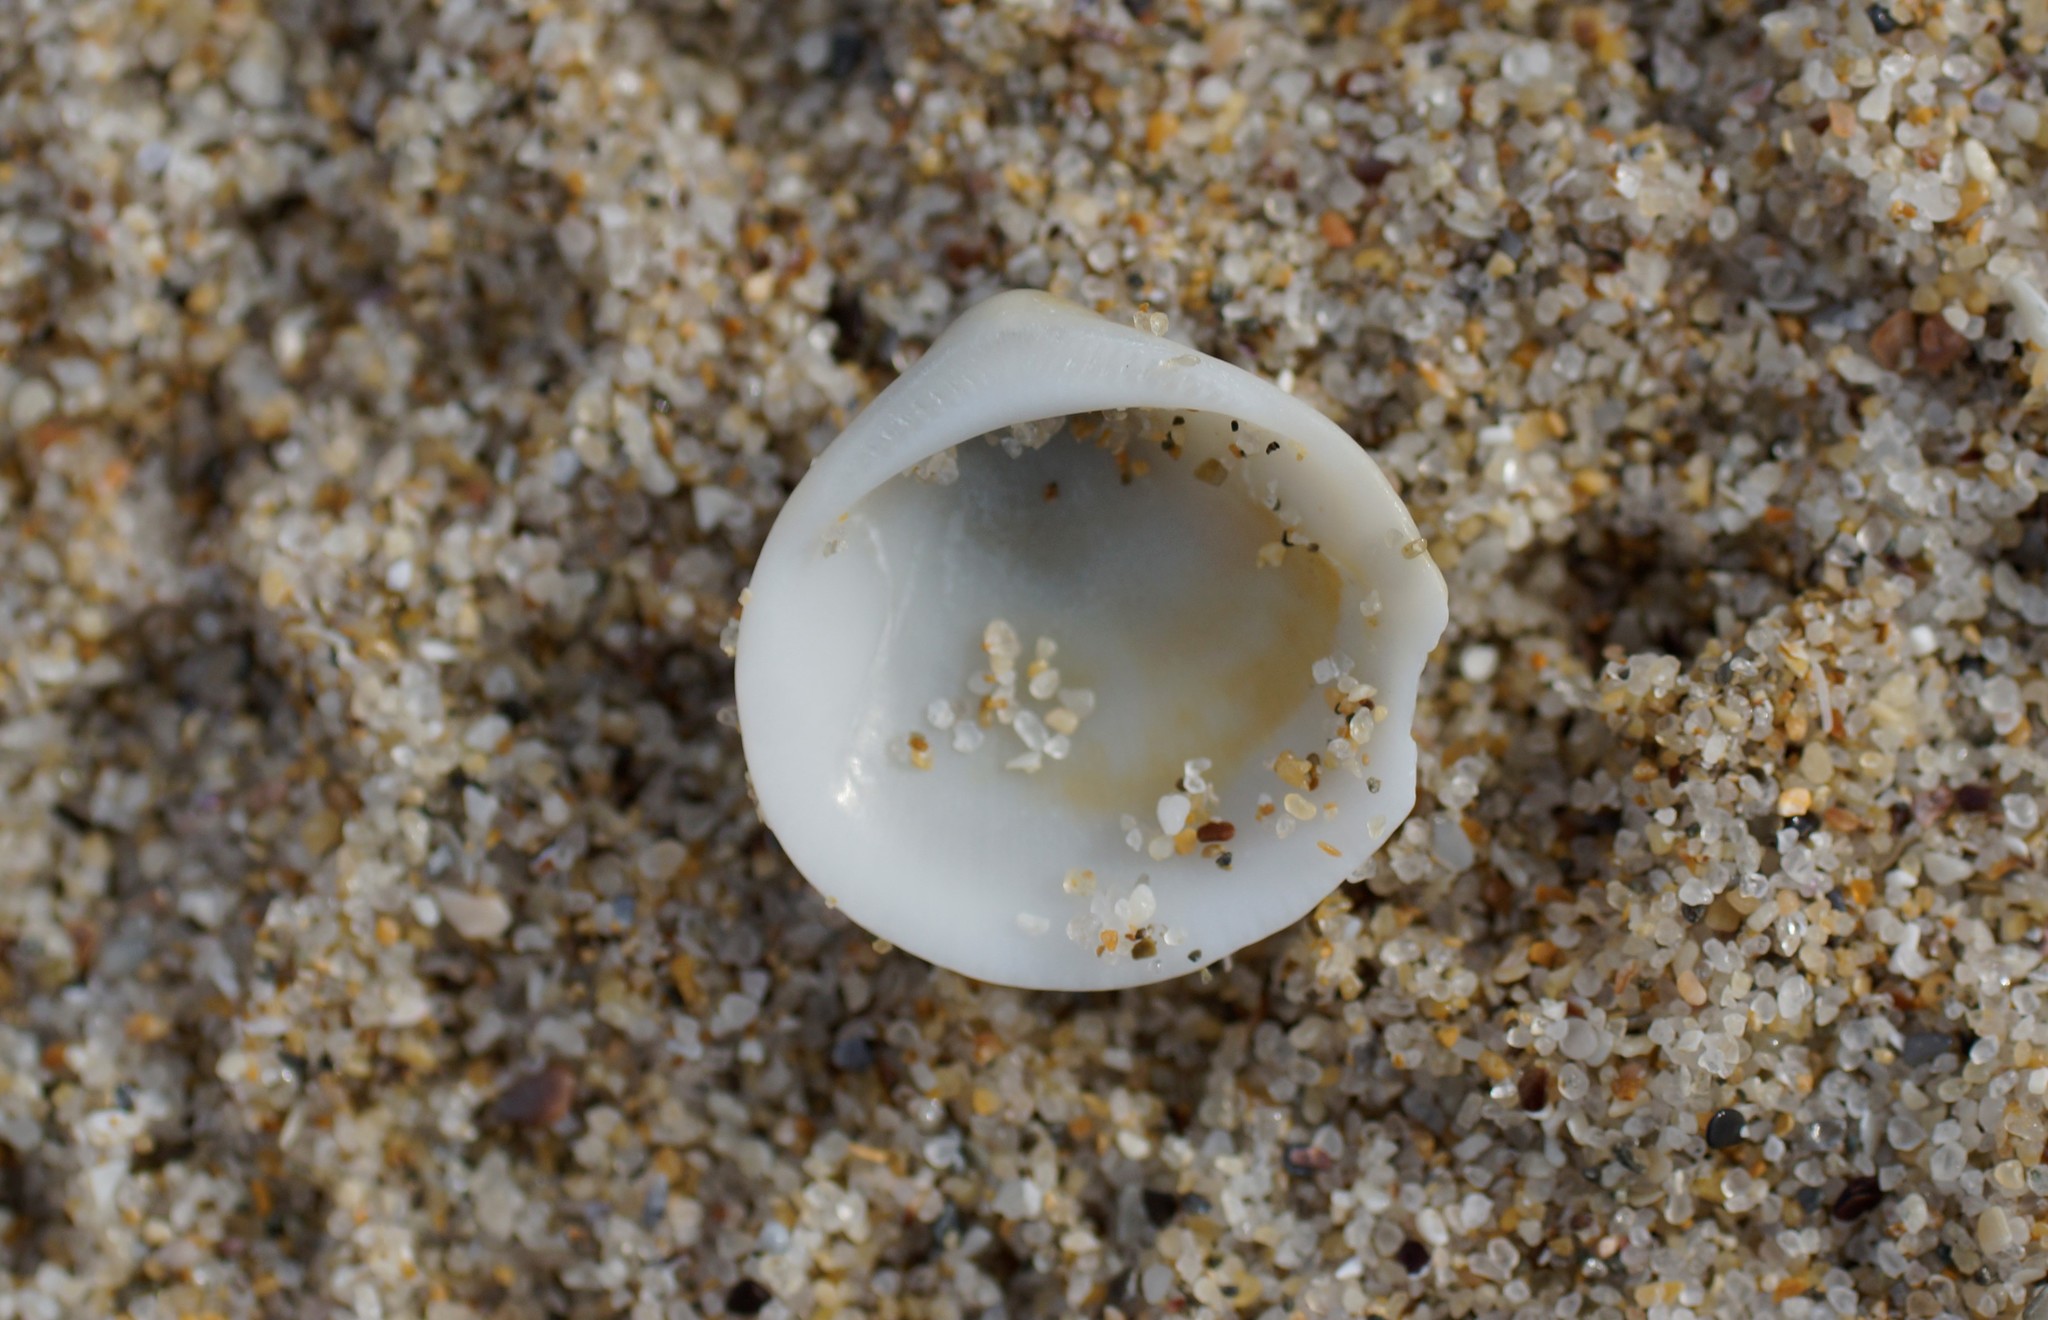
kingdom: Animalia
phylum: Mollusca
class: Bivalvia
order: Arcida
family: Glycymerididae
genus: Glycymeris
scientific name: Glycymeris grayana
